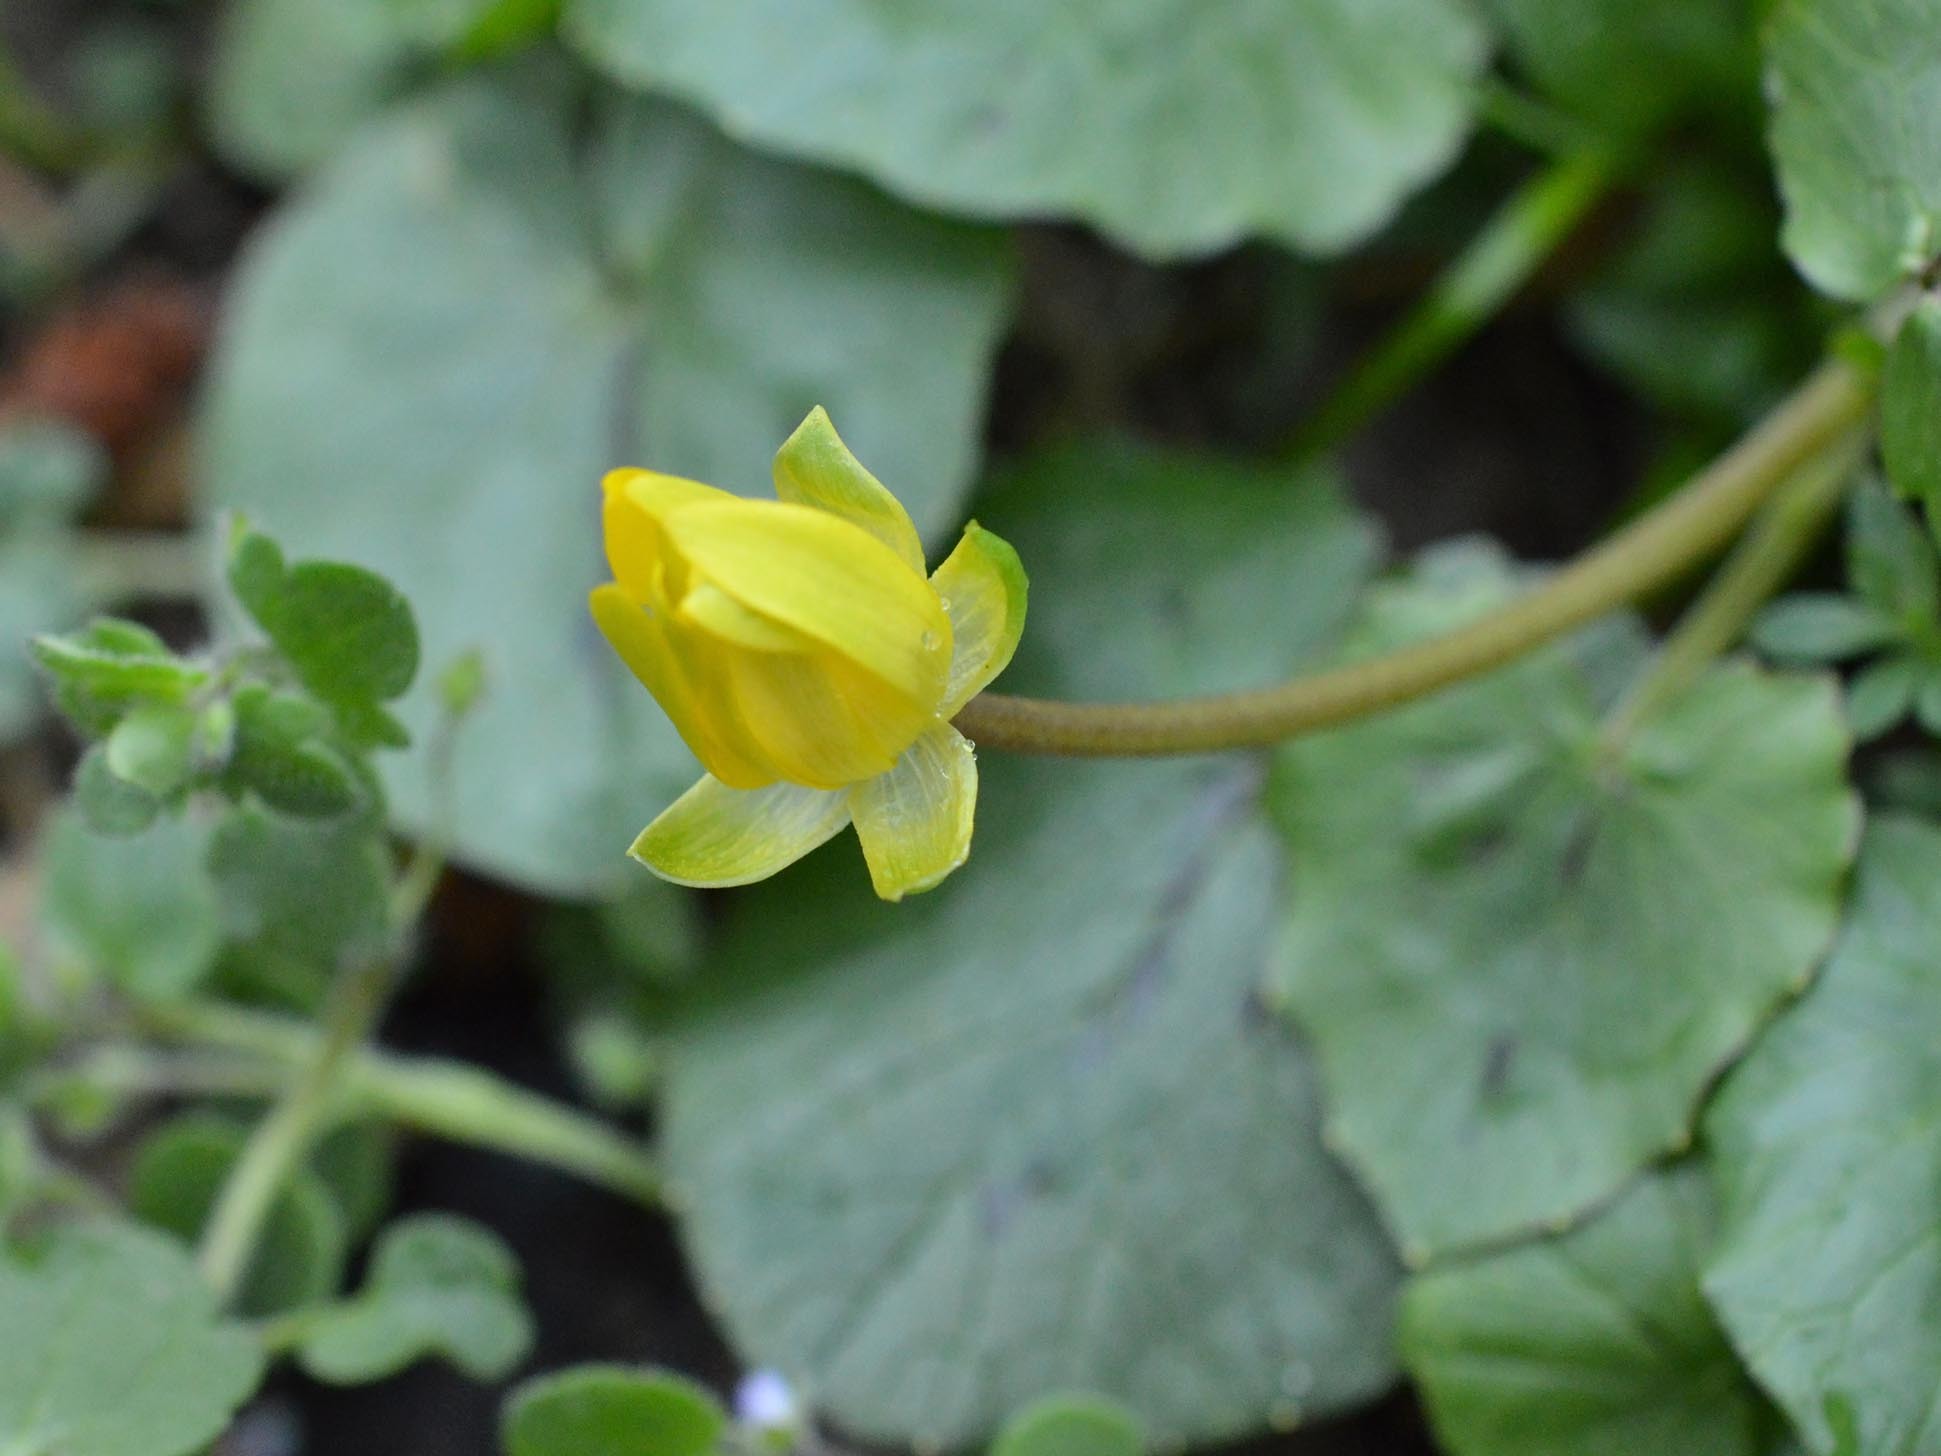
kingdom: Plantae
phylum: Tracheophyta
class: Magnoliopsida
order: Ranunculales
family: Ranunculaceae
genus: Ficaria
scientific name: Ficaria verna
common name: Lesser celandine
